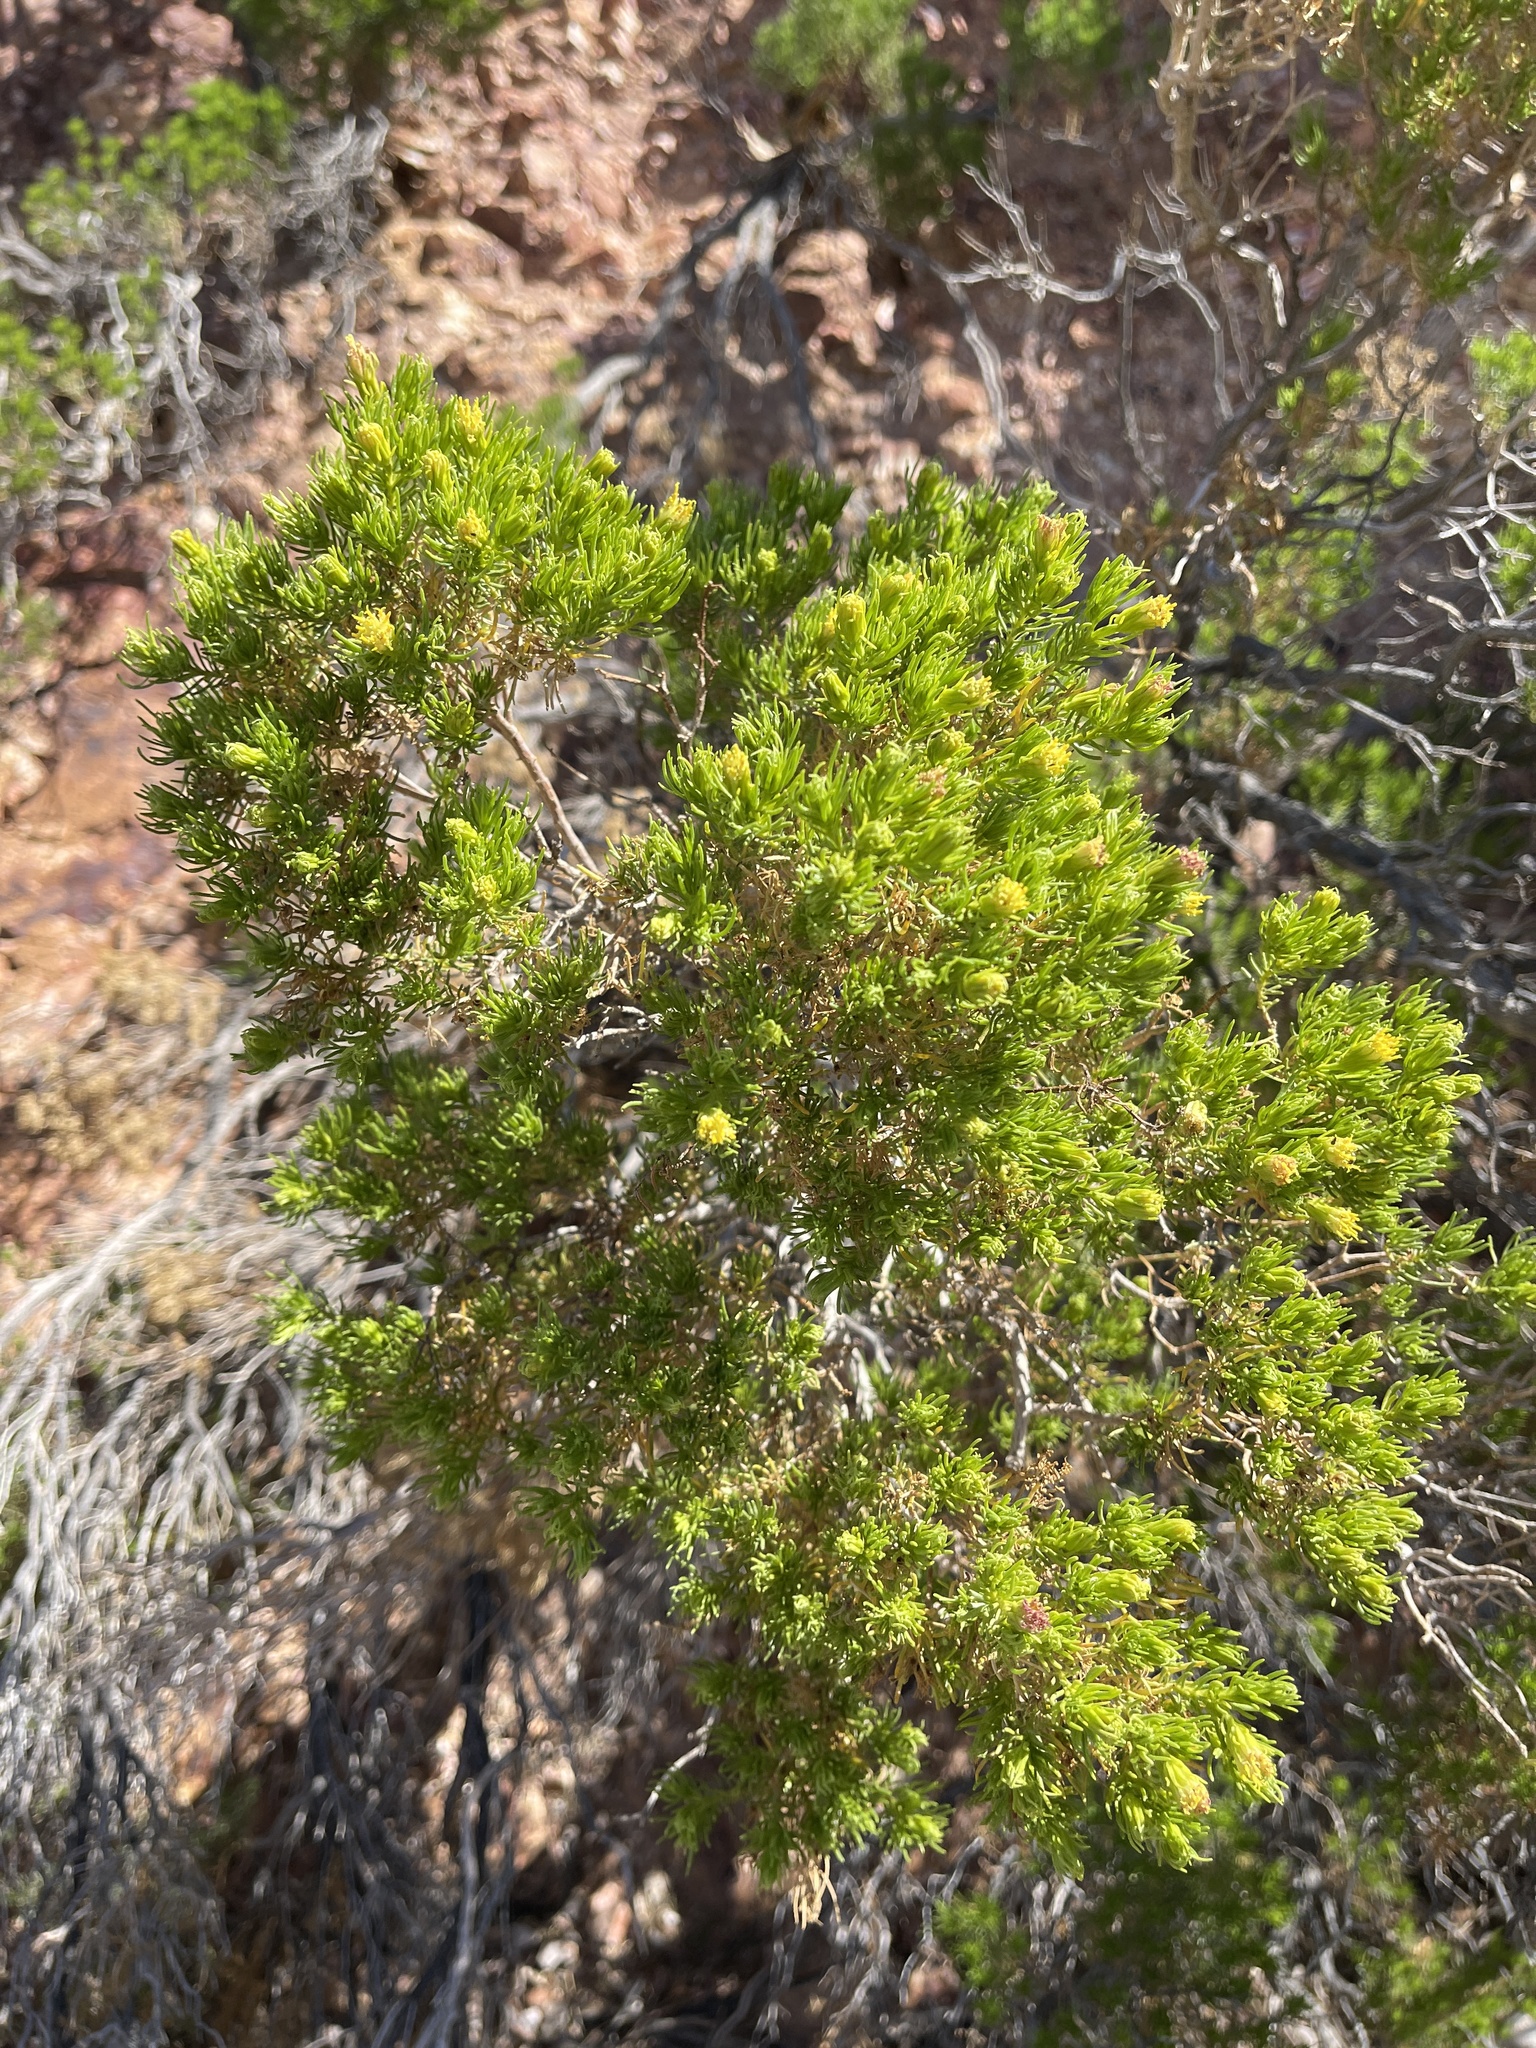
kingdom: Plantae
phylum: Tracheophyta
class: Magnoliopsida
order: Asterales
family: Asteraceae
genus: Peucephyllum
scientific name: Peucephyllum schottii
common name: Pygmy-cedar
